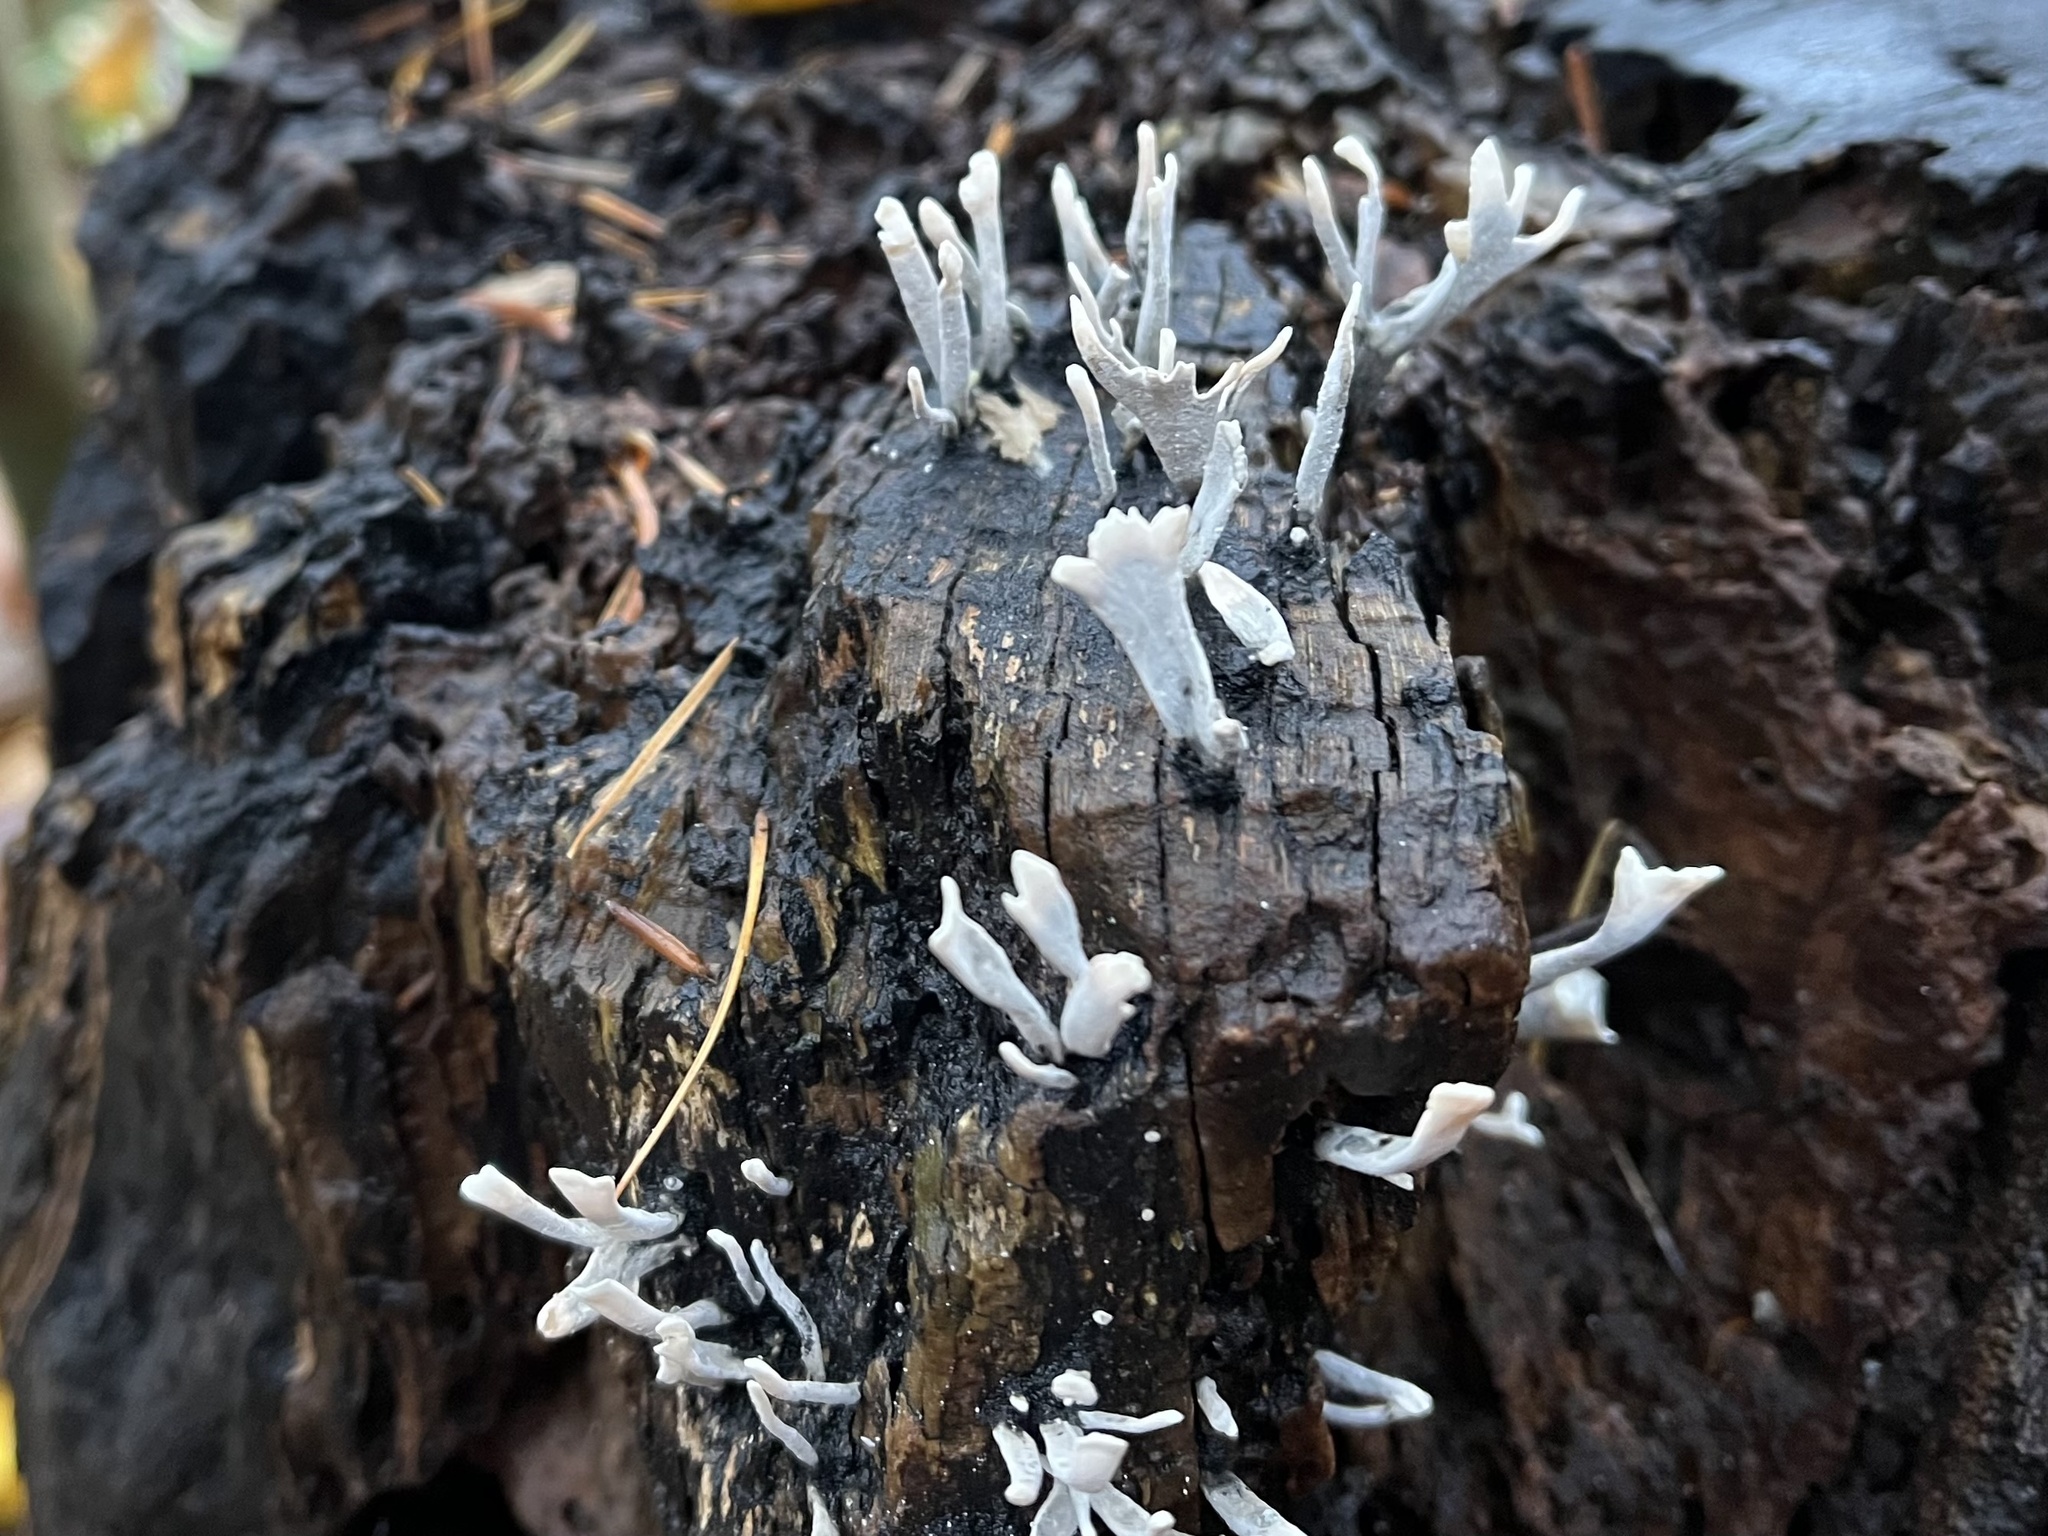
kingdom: Fungi
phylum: Ascomycota
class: Sordariomycetes
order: Xylariales
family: Xylariaceae
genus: Xylaria
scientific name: Xylaria hypoxylon
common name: Candle-snuff fungus
